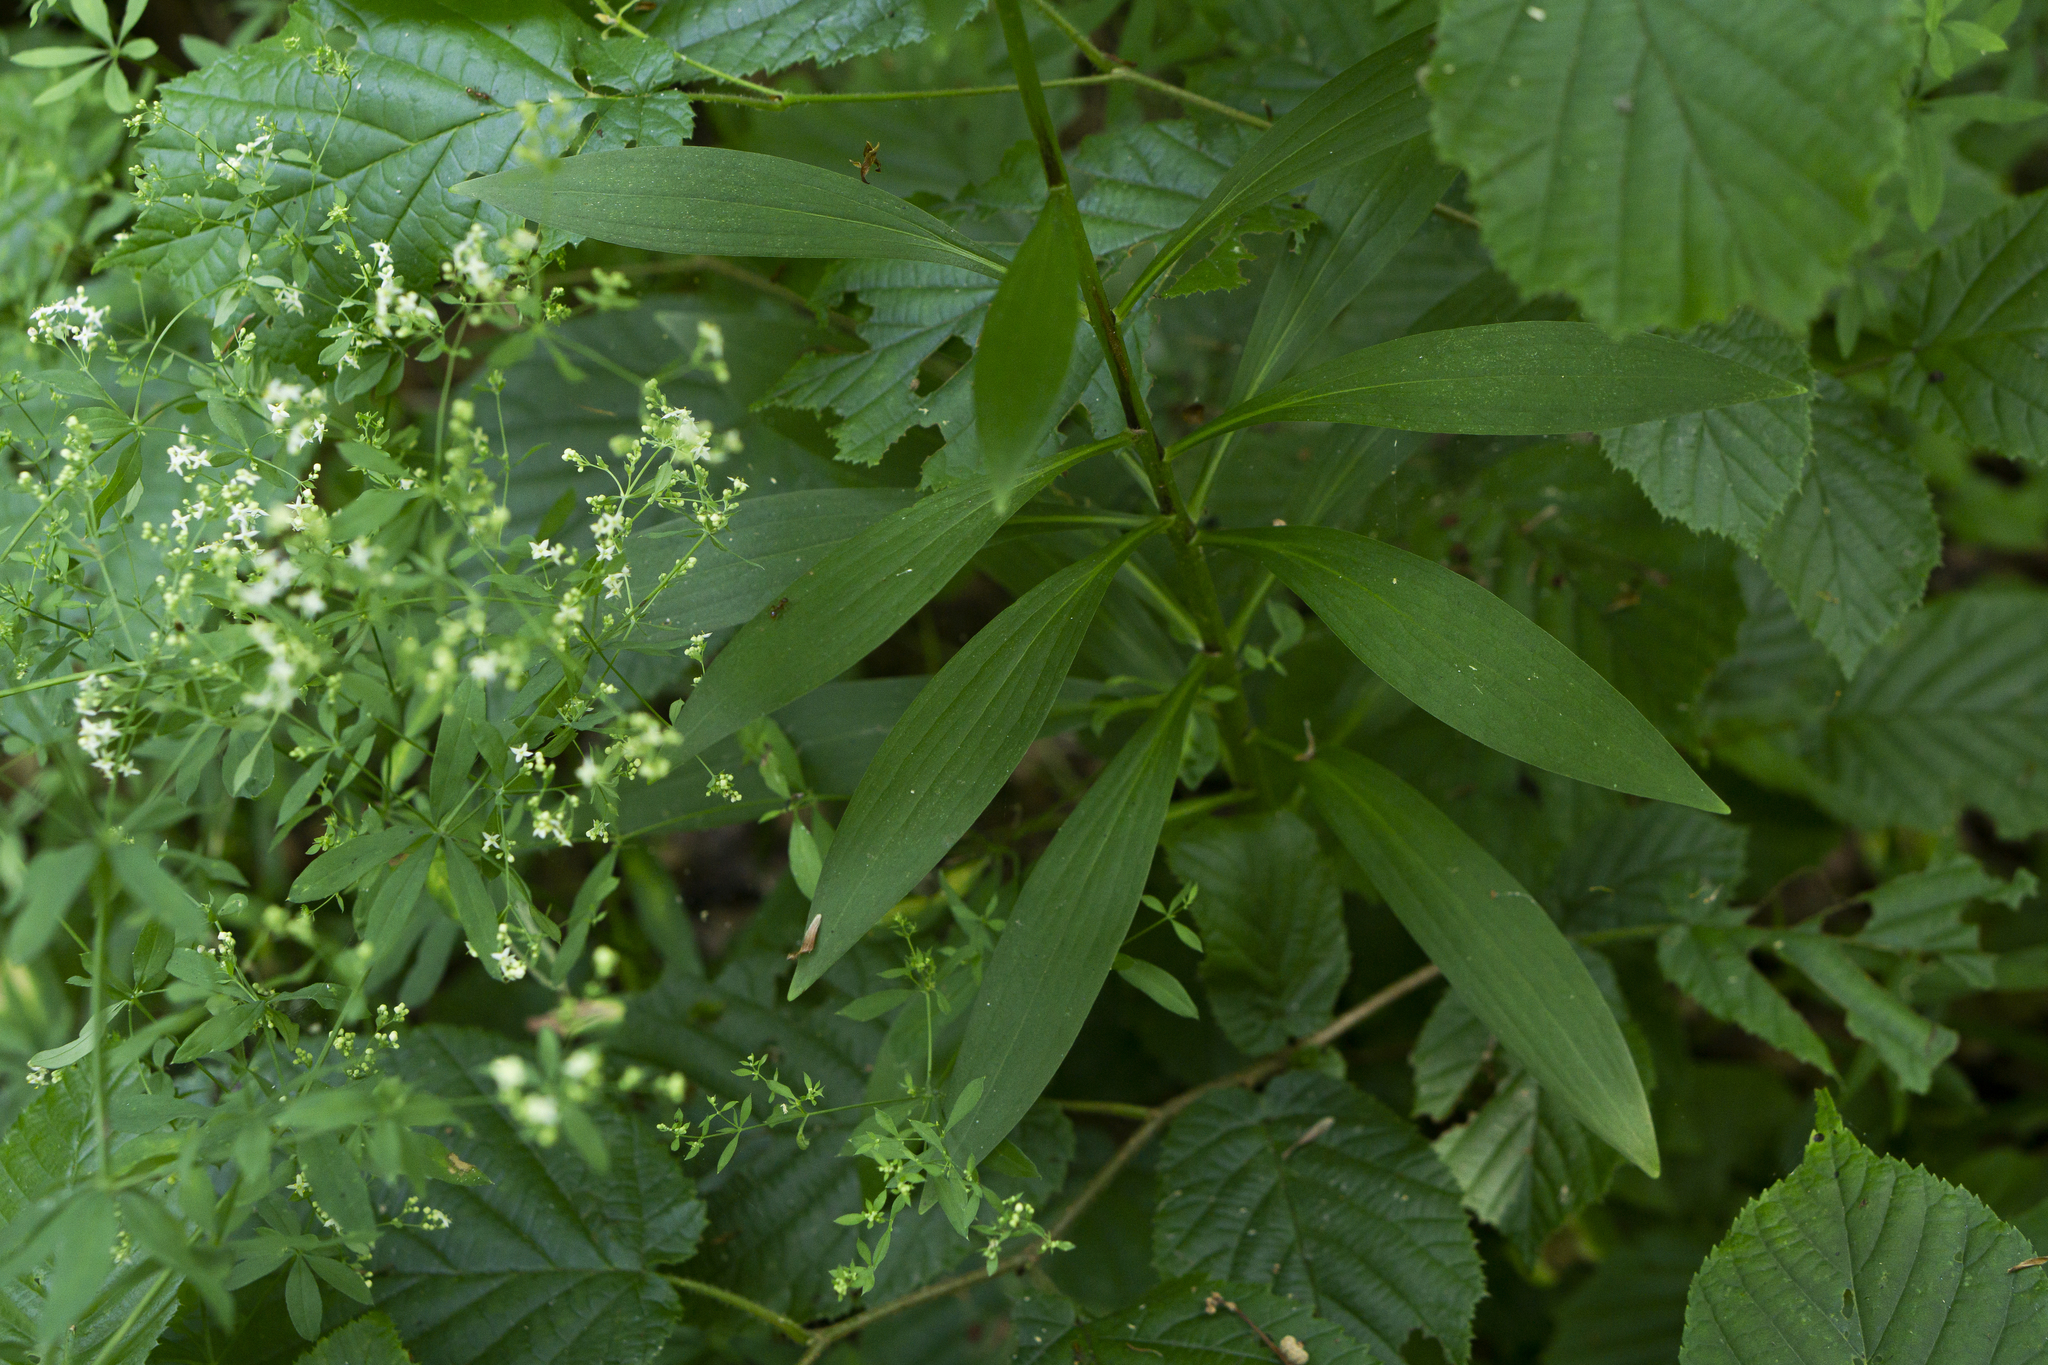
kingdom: Plantae
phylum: Tracheophyta
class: Liliopsida
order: Liliales
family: Liliaceae
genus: Lilium
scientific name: Lilium martagon
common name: Martagon lily
